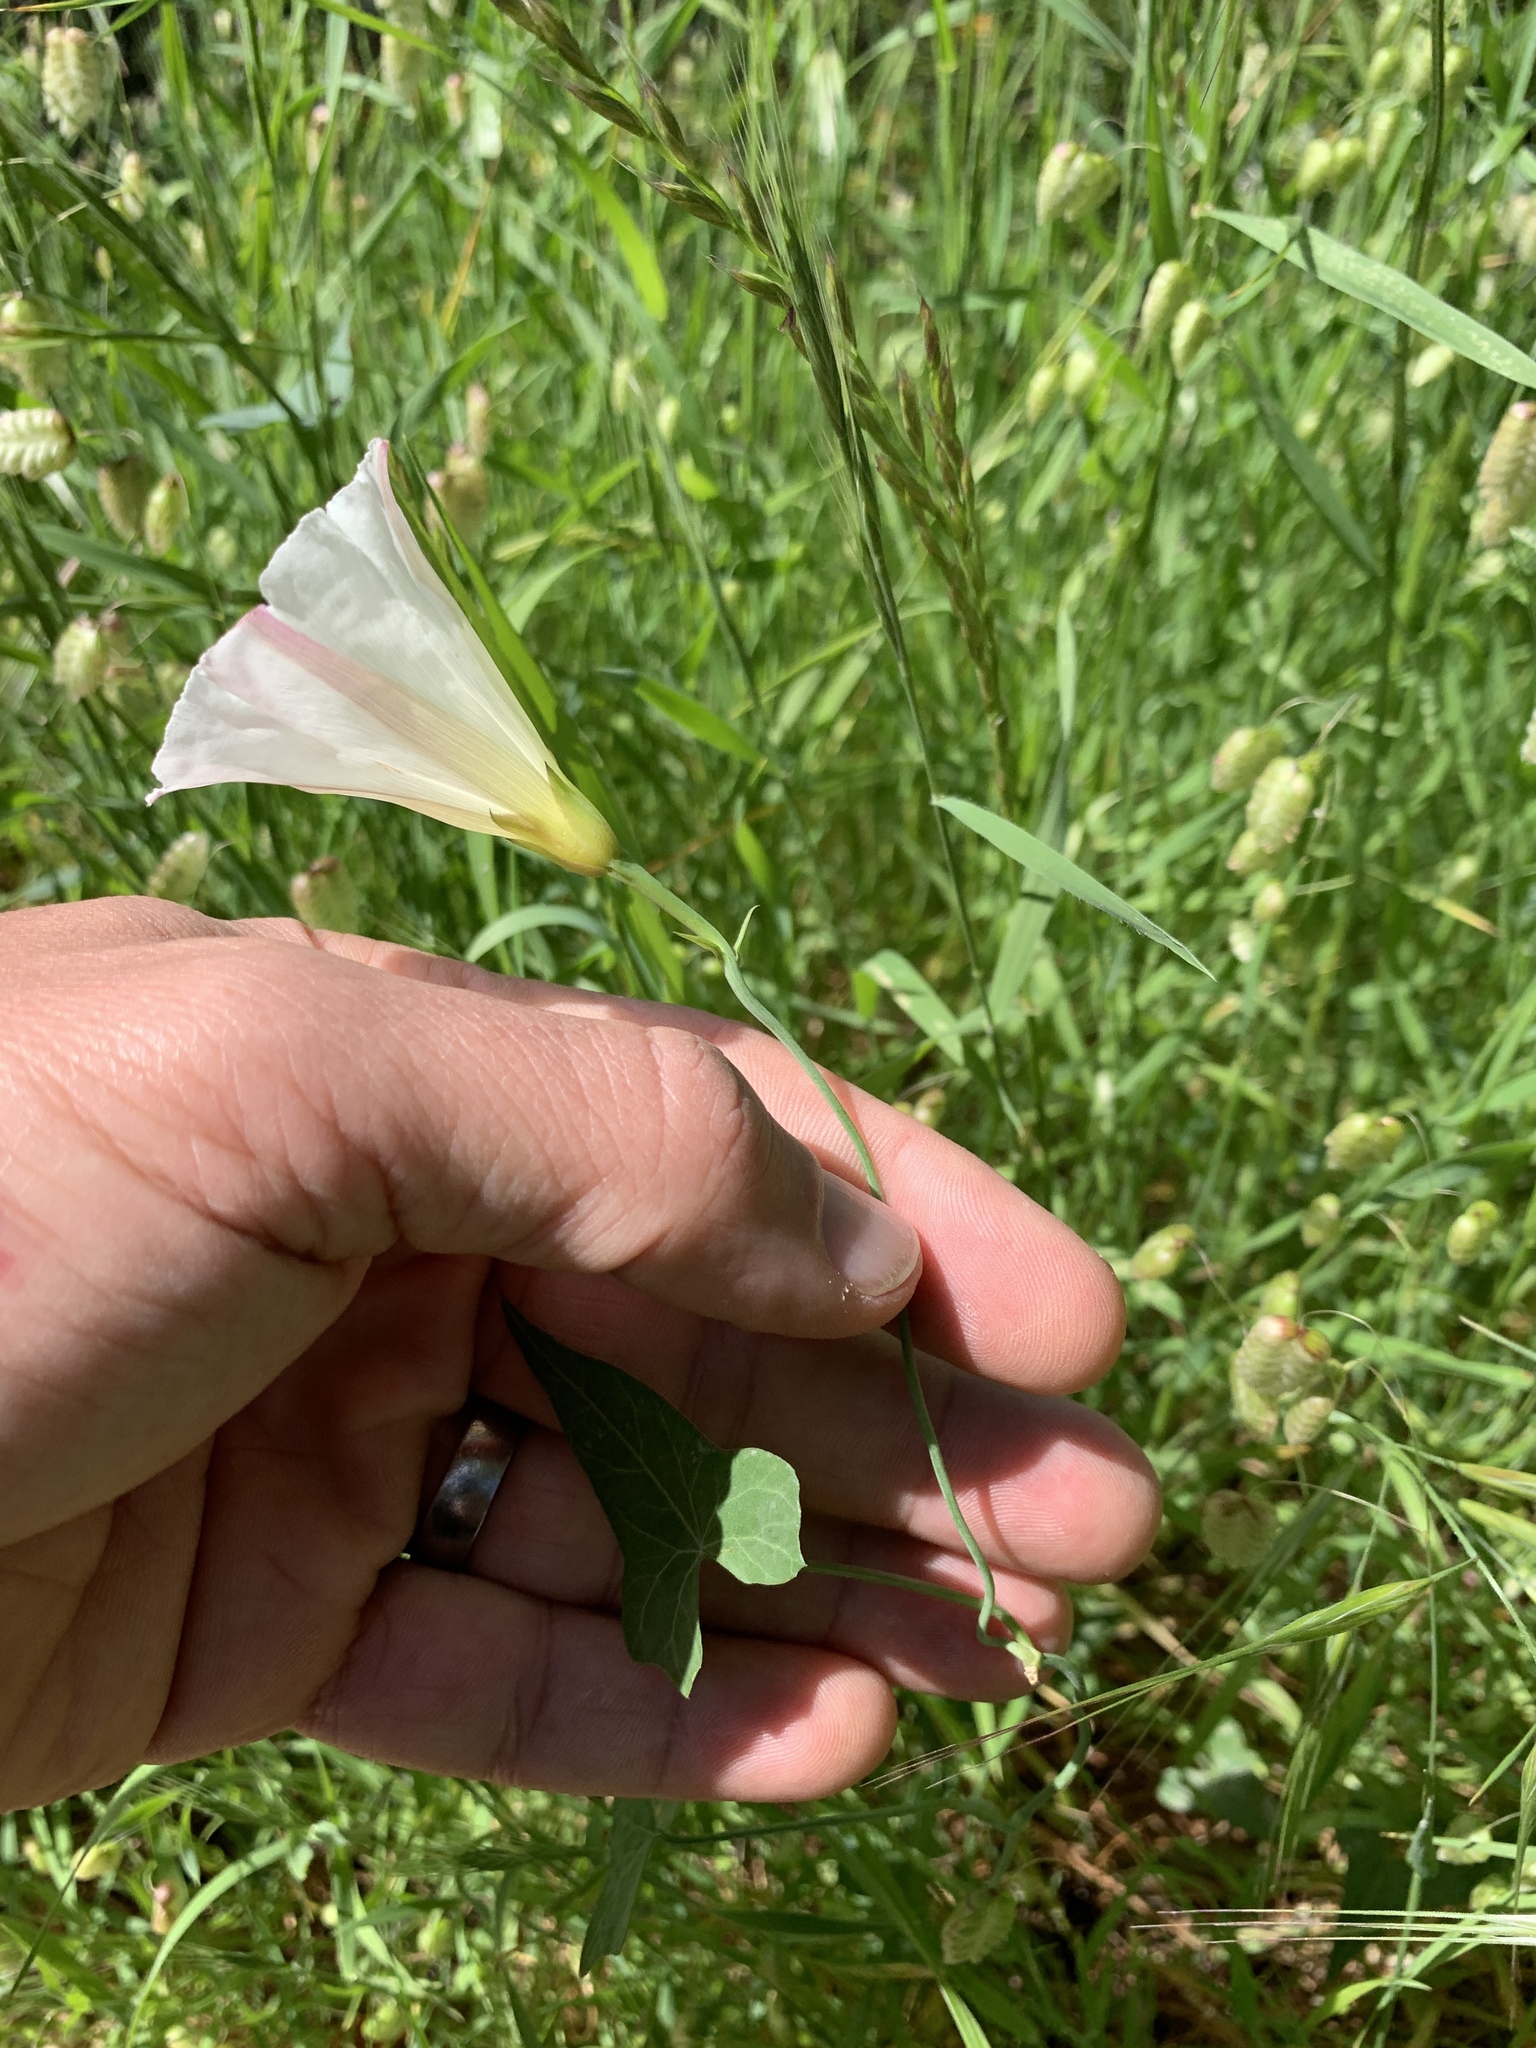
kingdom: Plantae
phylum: Tracheophyta
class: Magnoliopsida
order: Solanales
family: Convolvulaceae
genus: Calystegia
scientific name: Calystegia purpurata
